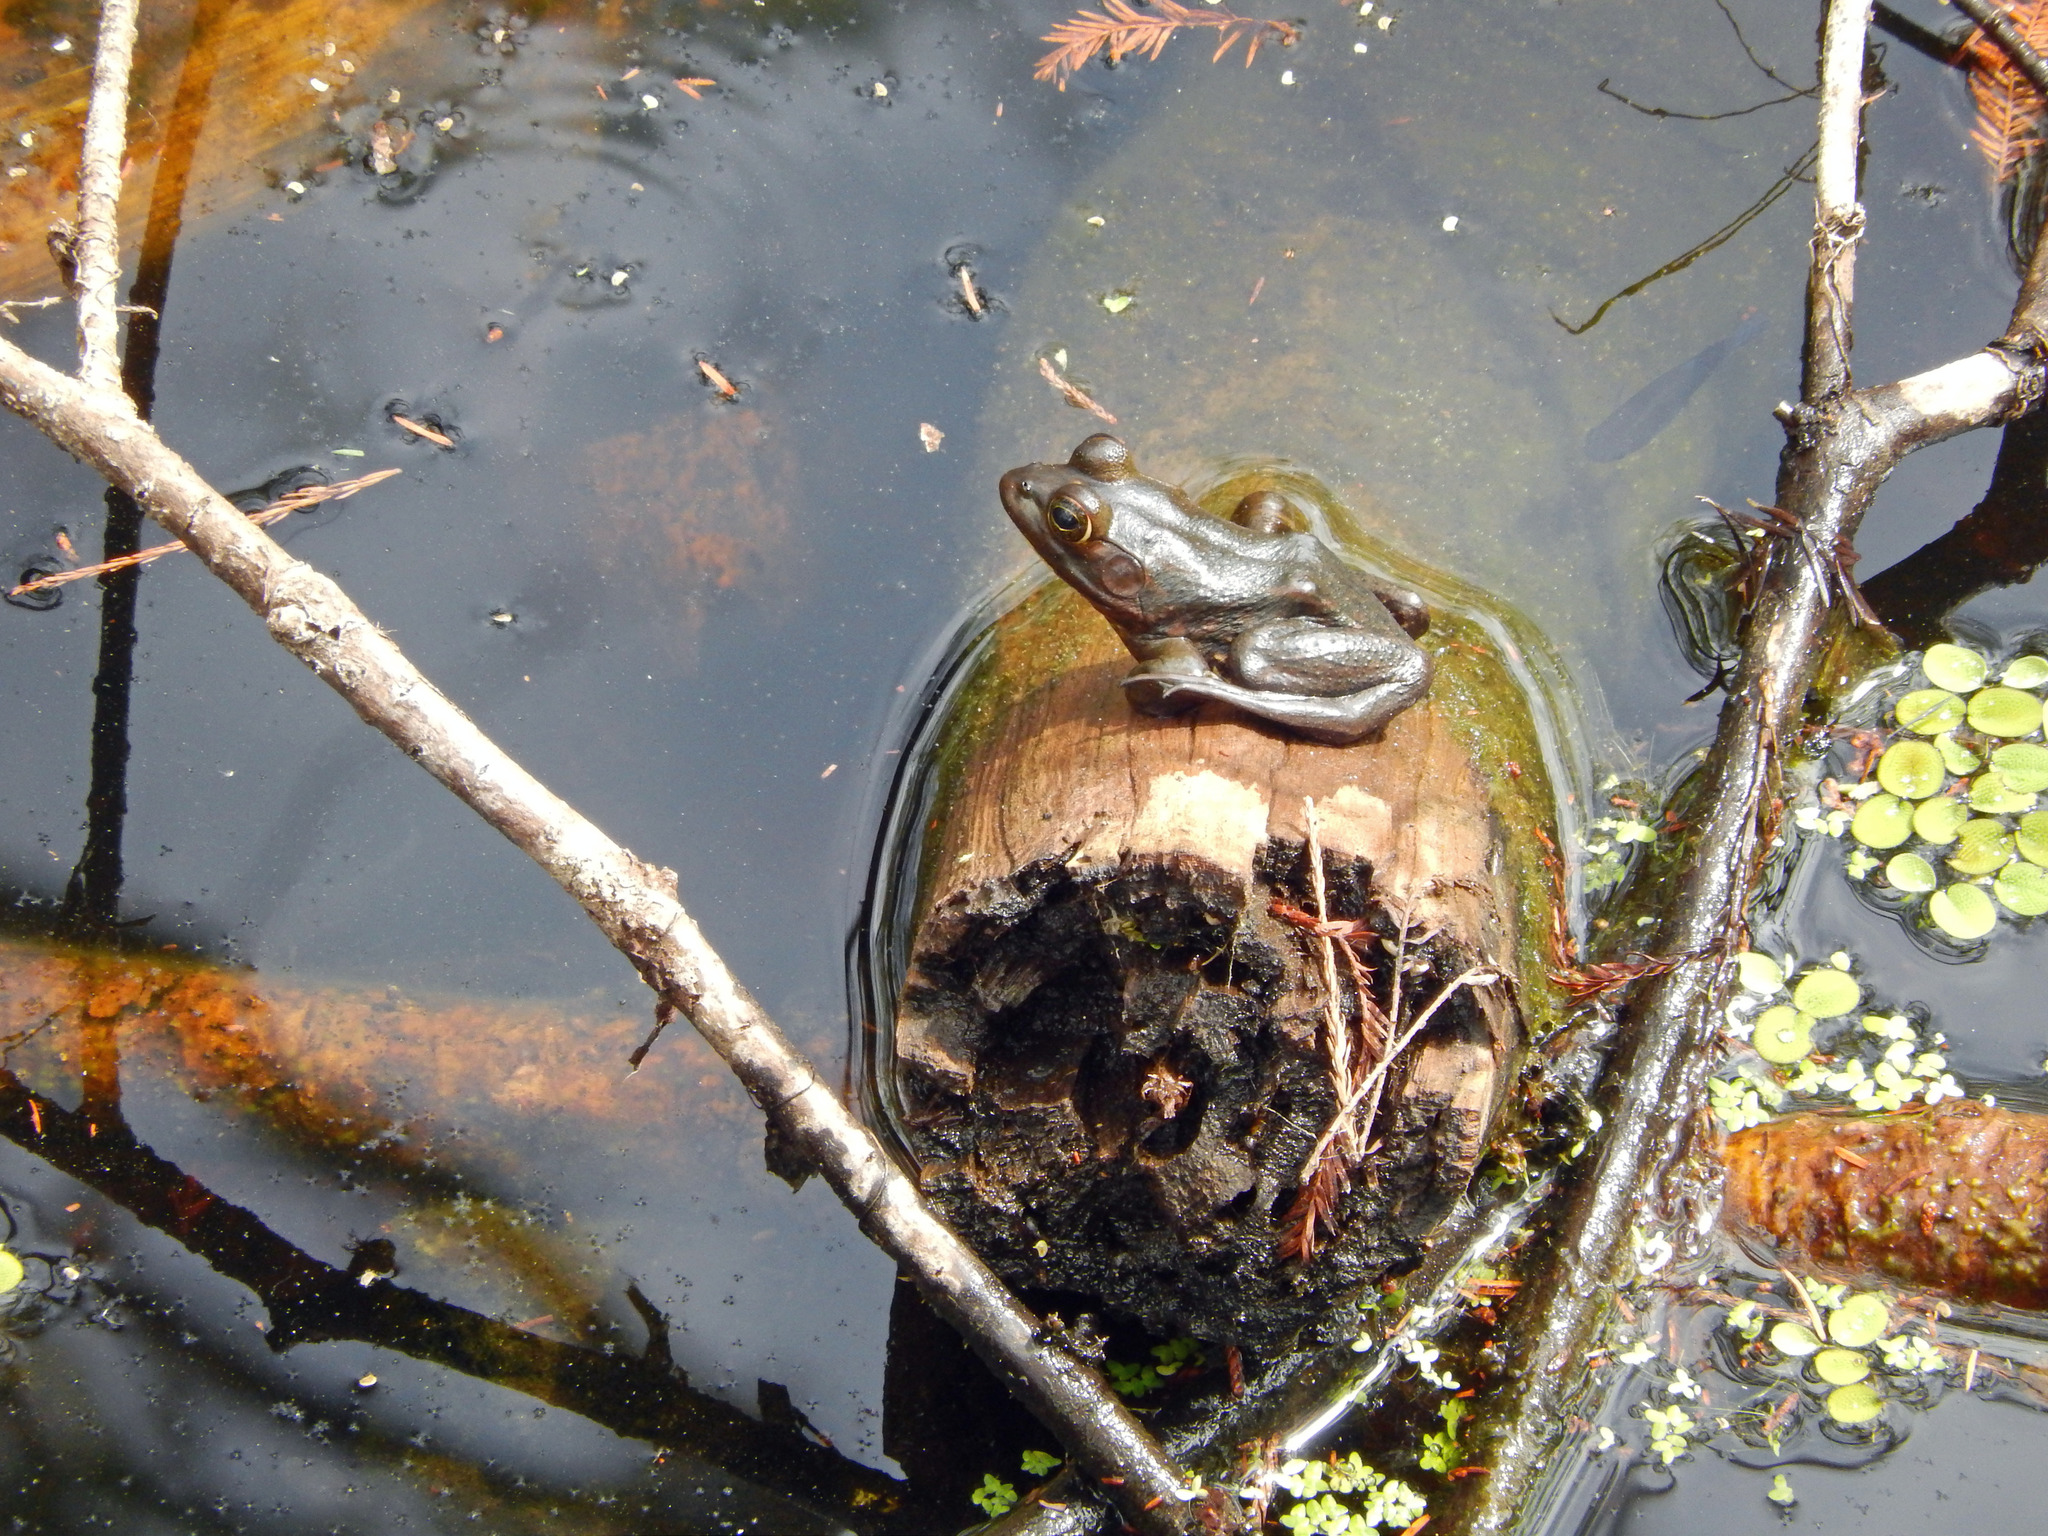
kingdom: Animalia
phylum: Chordata
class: Amphibia
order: Anura
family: Ranidae
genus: Lithobates
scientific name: Lithobates grylio
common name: Pig frog
